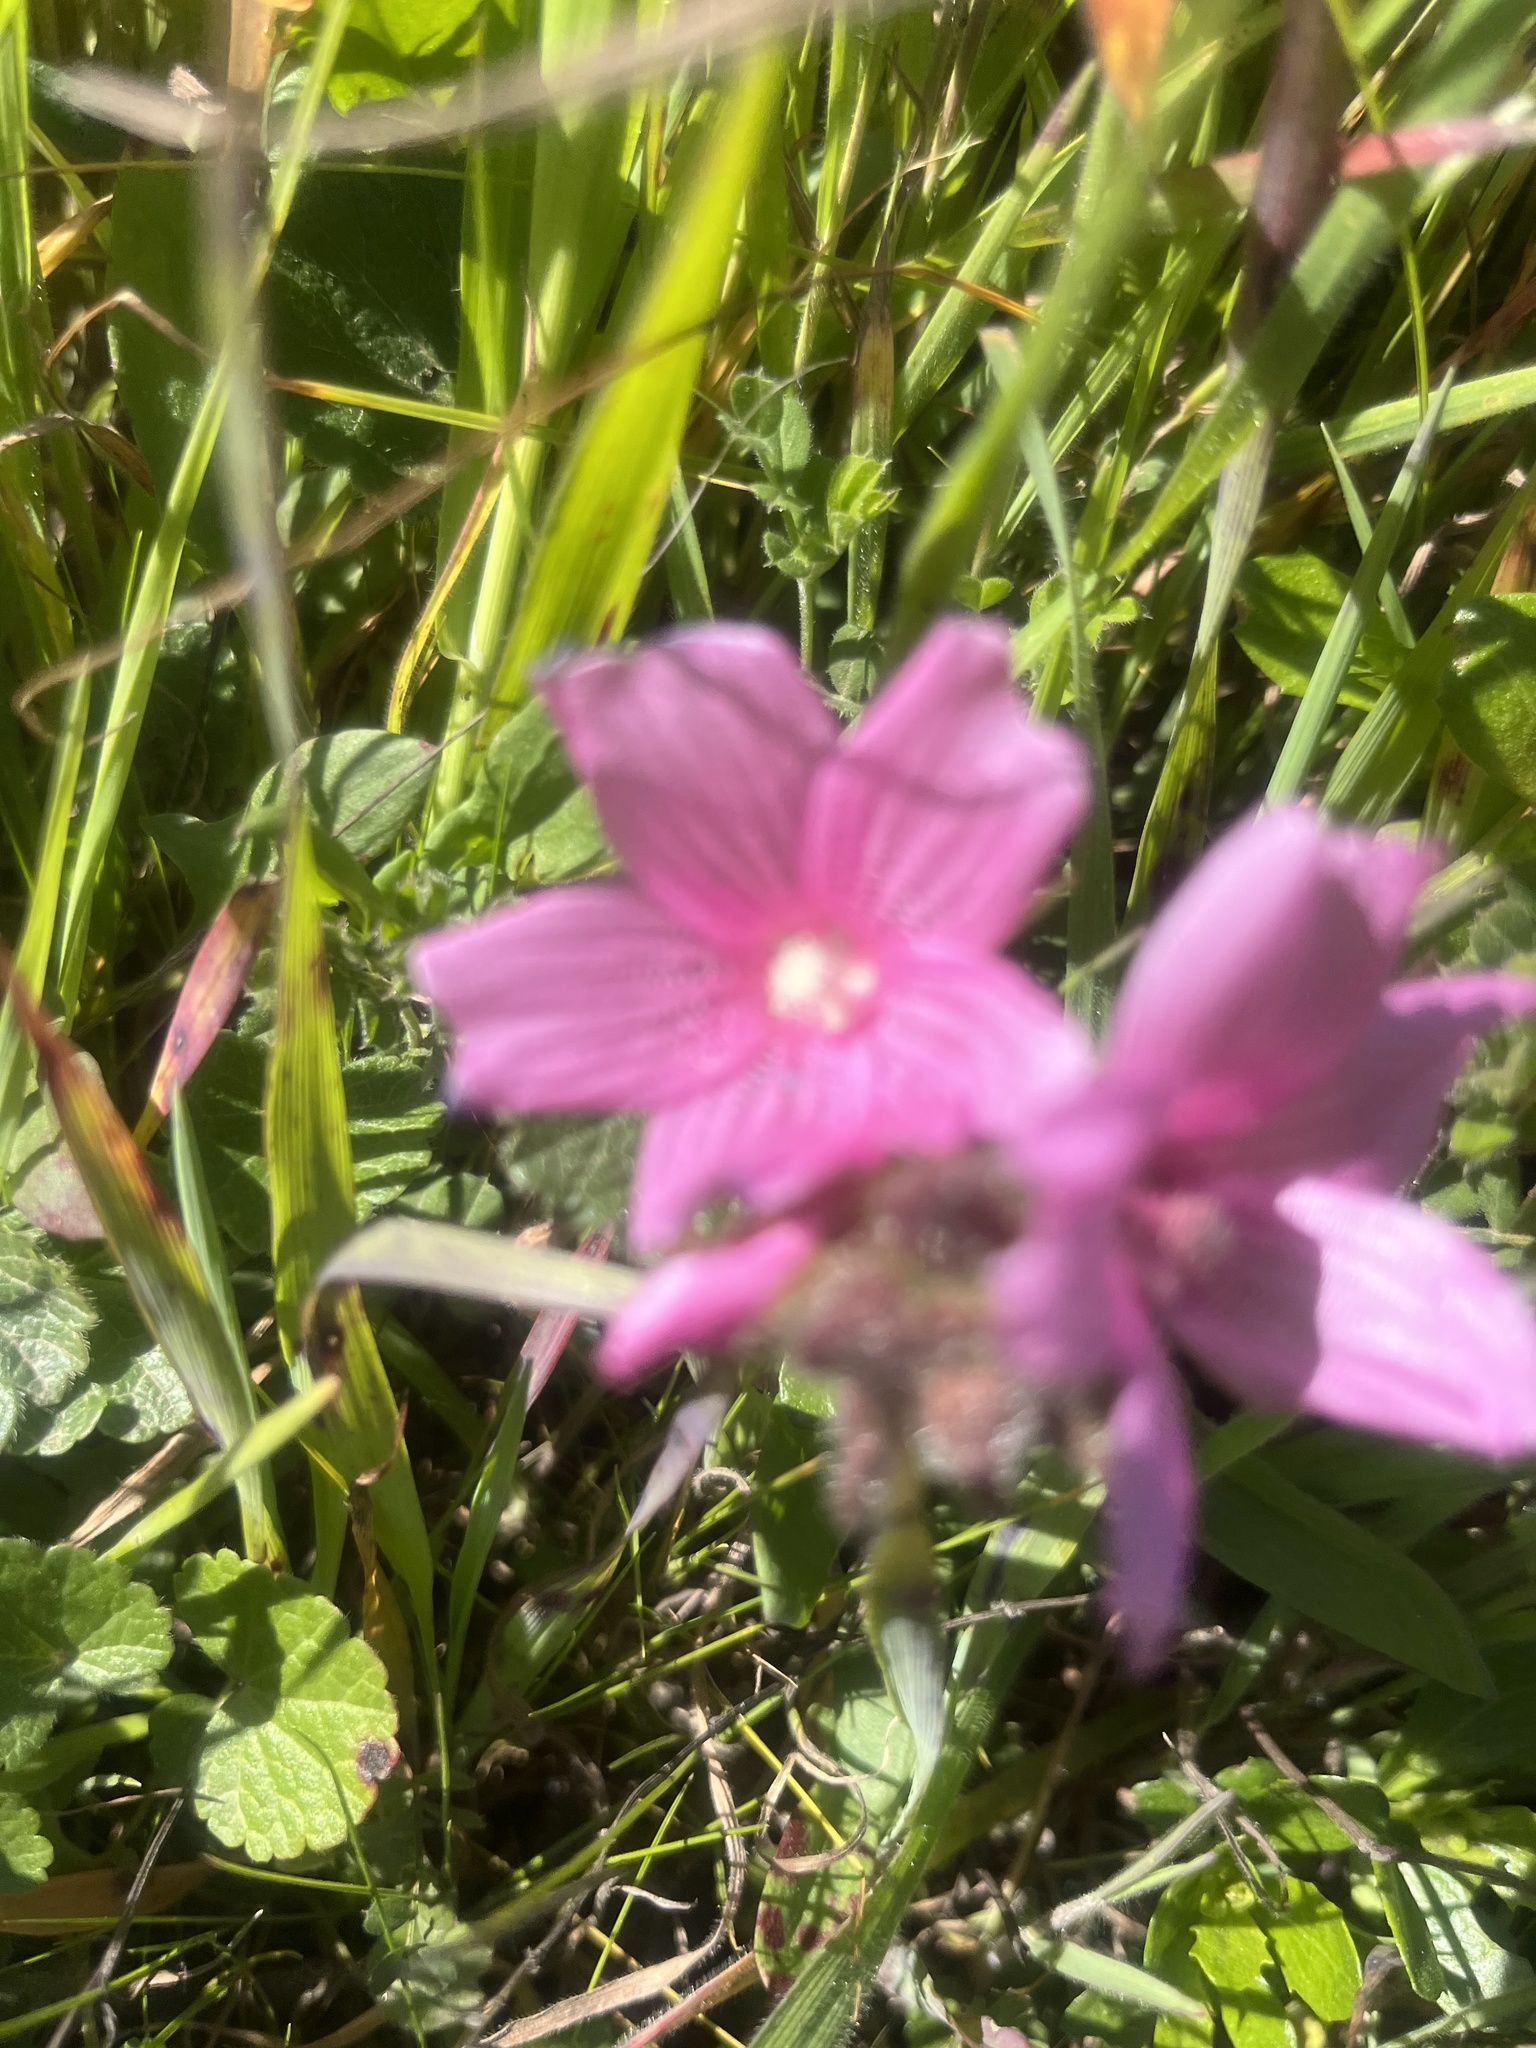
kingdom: Plantae
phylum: Tracheophyta
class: Magnoliopsida
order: Malvales
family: Malvaceae
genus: Sidalcea
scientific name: Sidalcea malviflora
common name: Greek mallow
